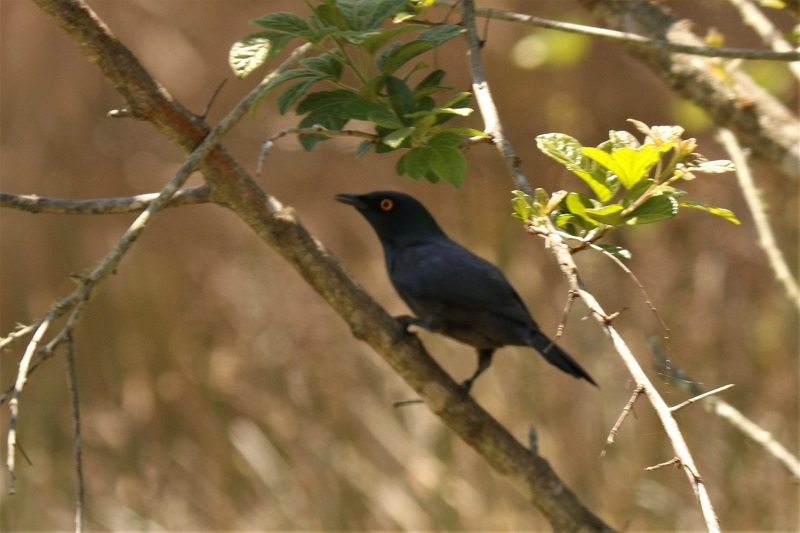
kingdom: Animalia
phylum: Chordata
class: Aves
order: Passeriformes
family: Sturnidae
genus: Notopholia
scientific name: Notopholia corrusca
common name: Black-bellied starling
